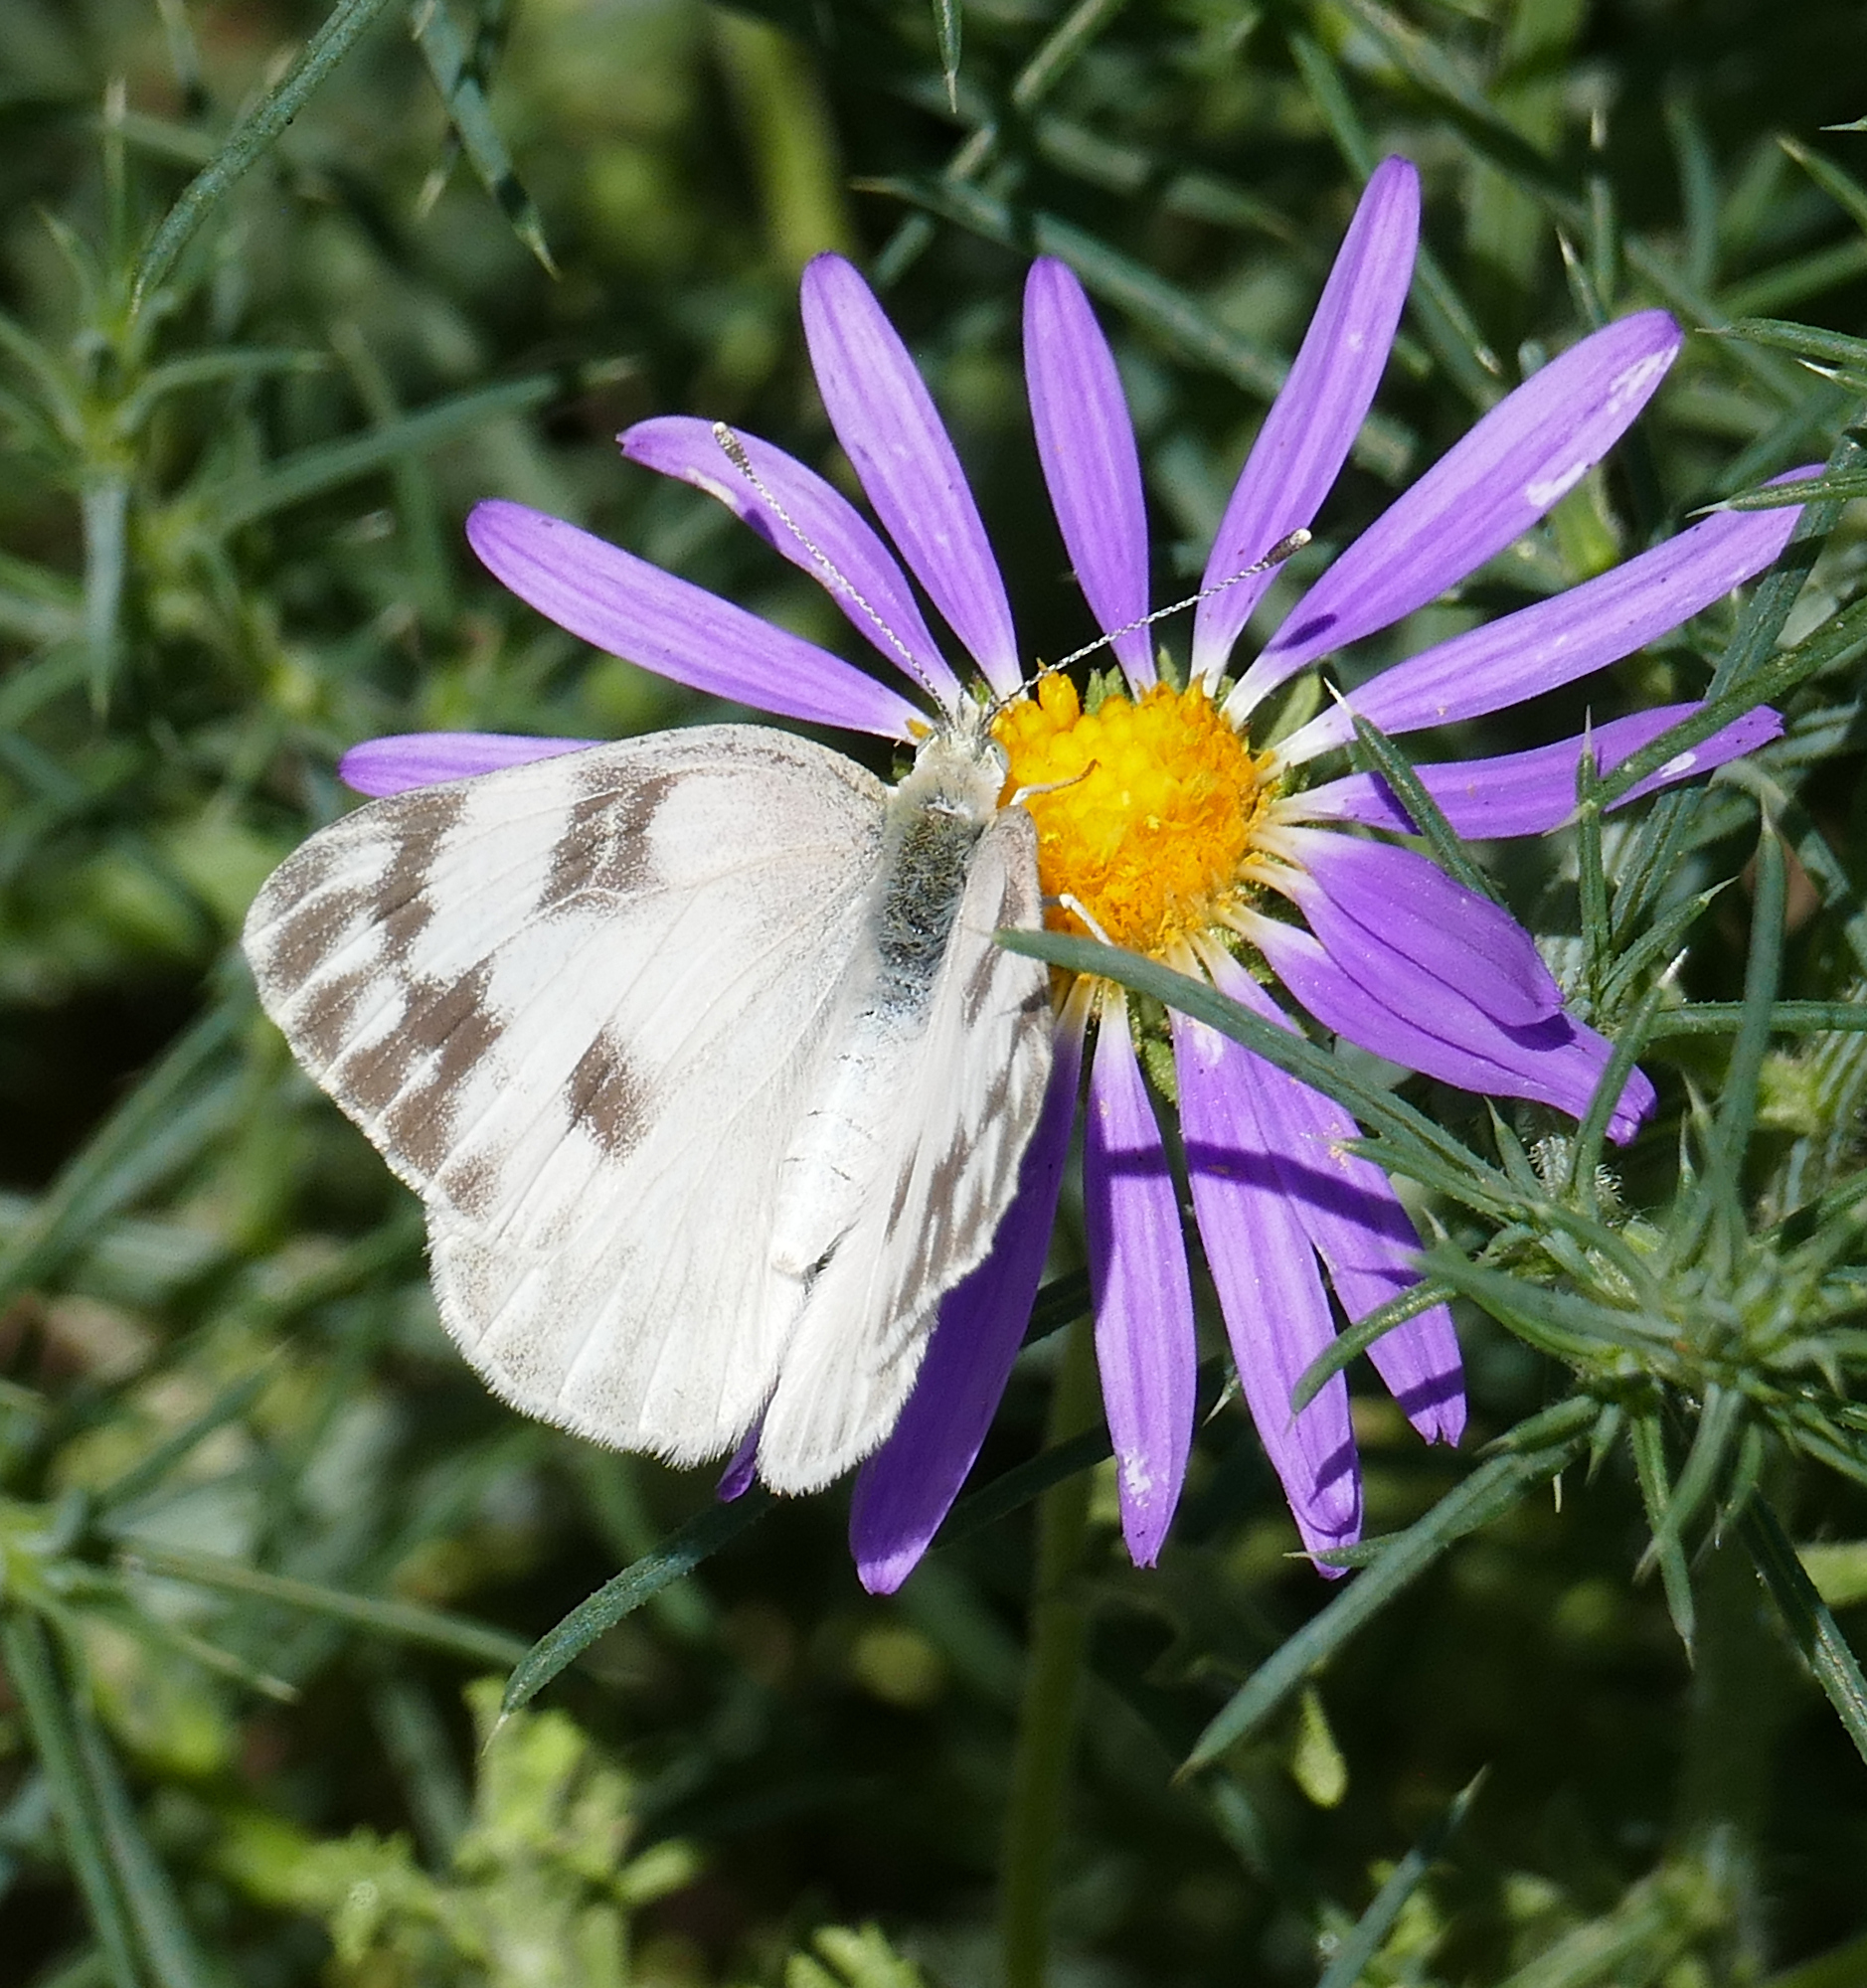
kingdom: Animalia
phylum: Arthropoda
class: Insecta
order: Lepidoptera
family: Pieridae
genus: Pontia
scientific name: Pontia protodice
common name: Checkered white
